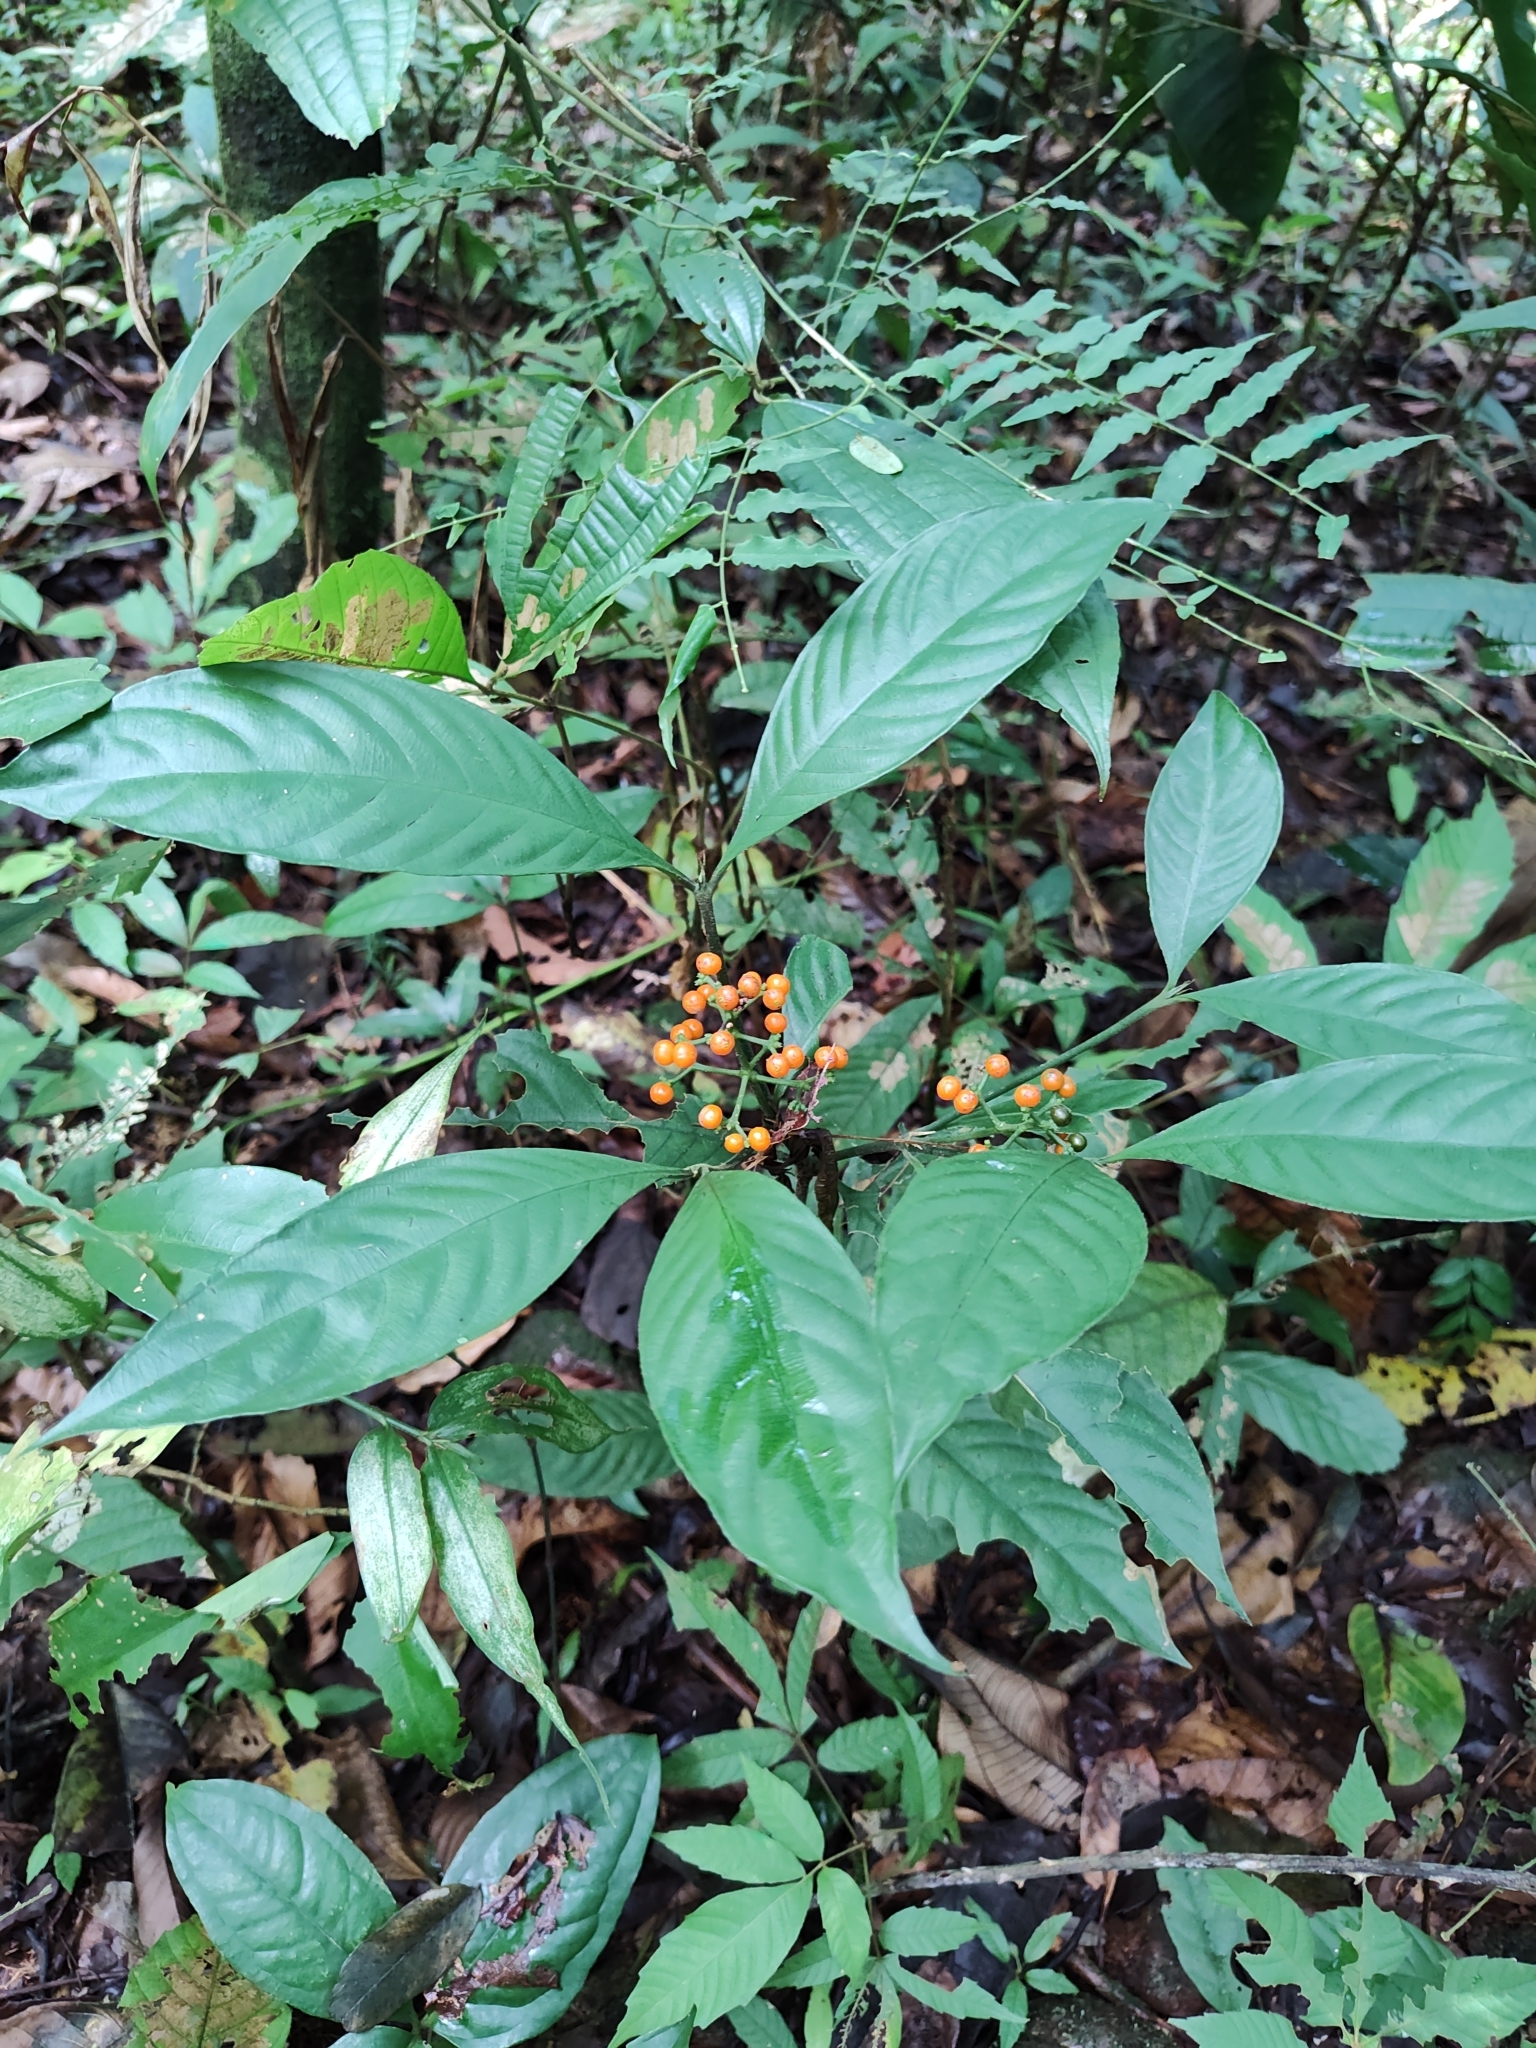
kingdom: Plantae
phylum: Tracheophyta
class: Magnoliopsida
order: Gentianales
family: Rubiaceae
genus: Palicourea
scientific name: Palicourea racemosa
